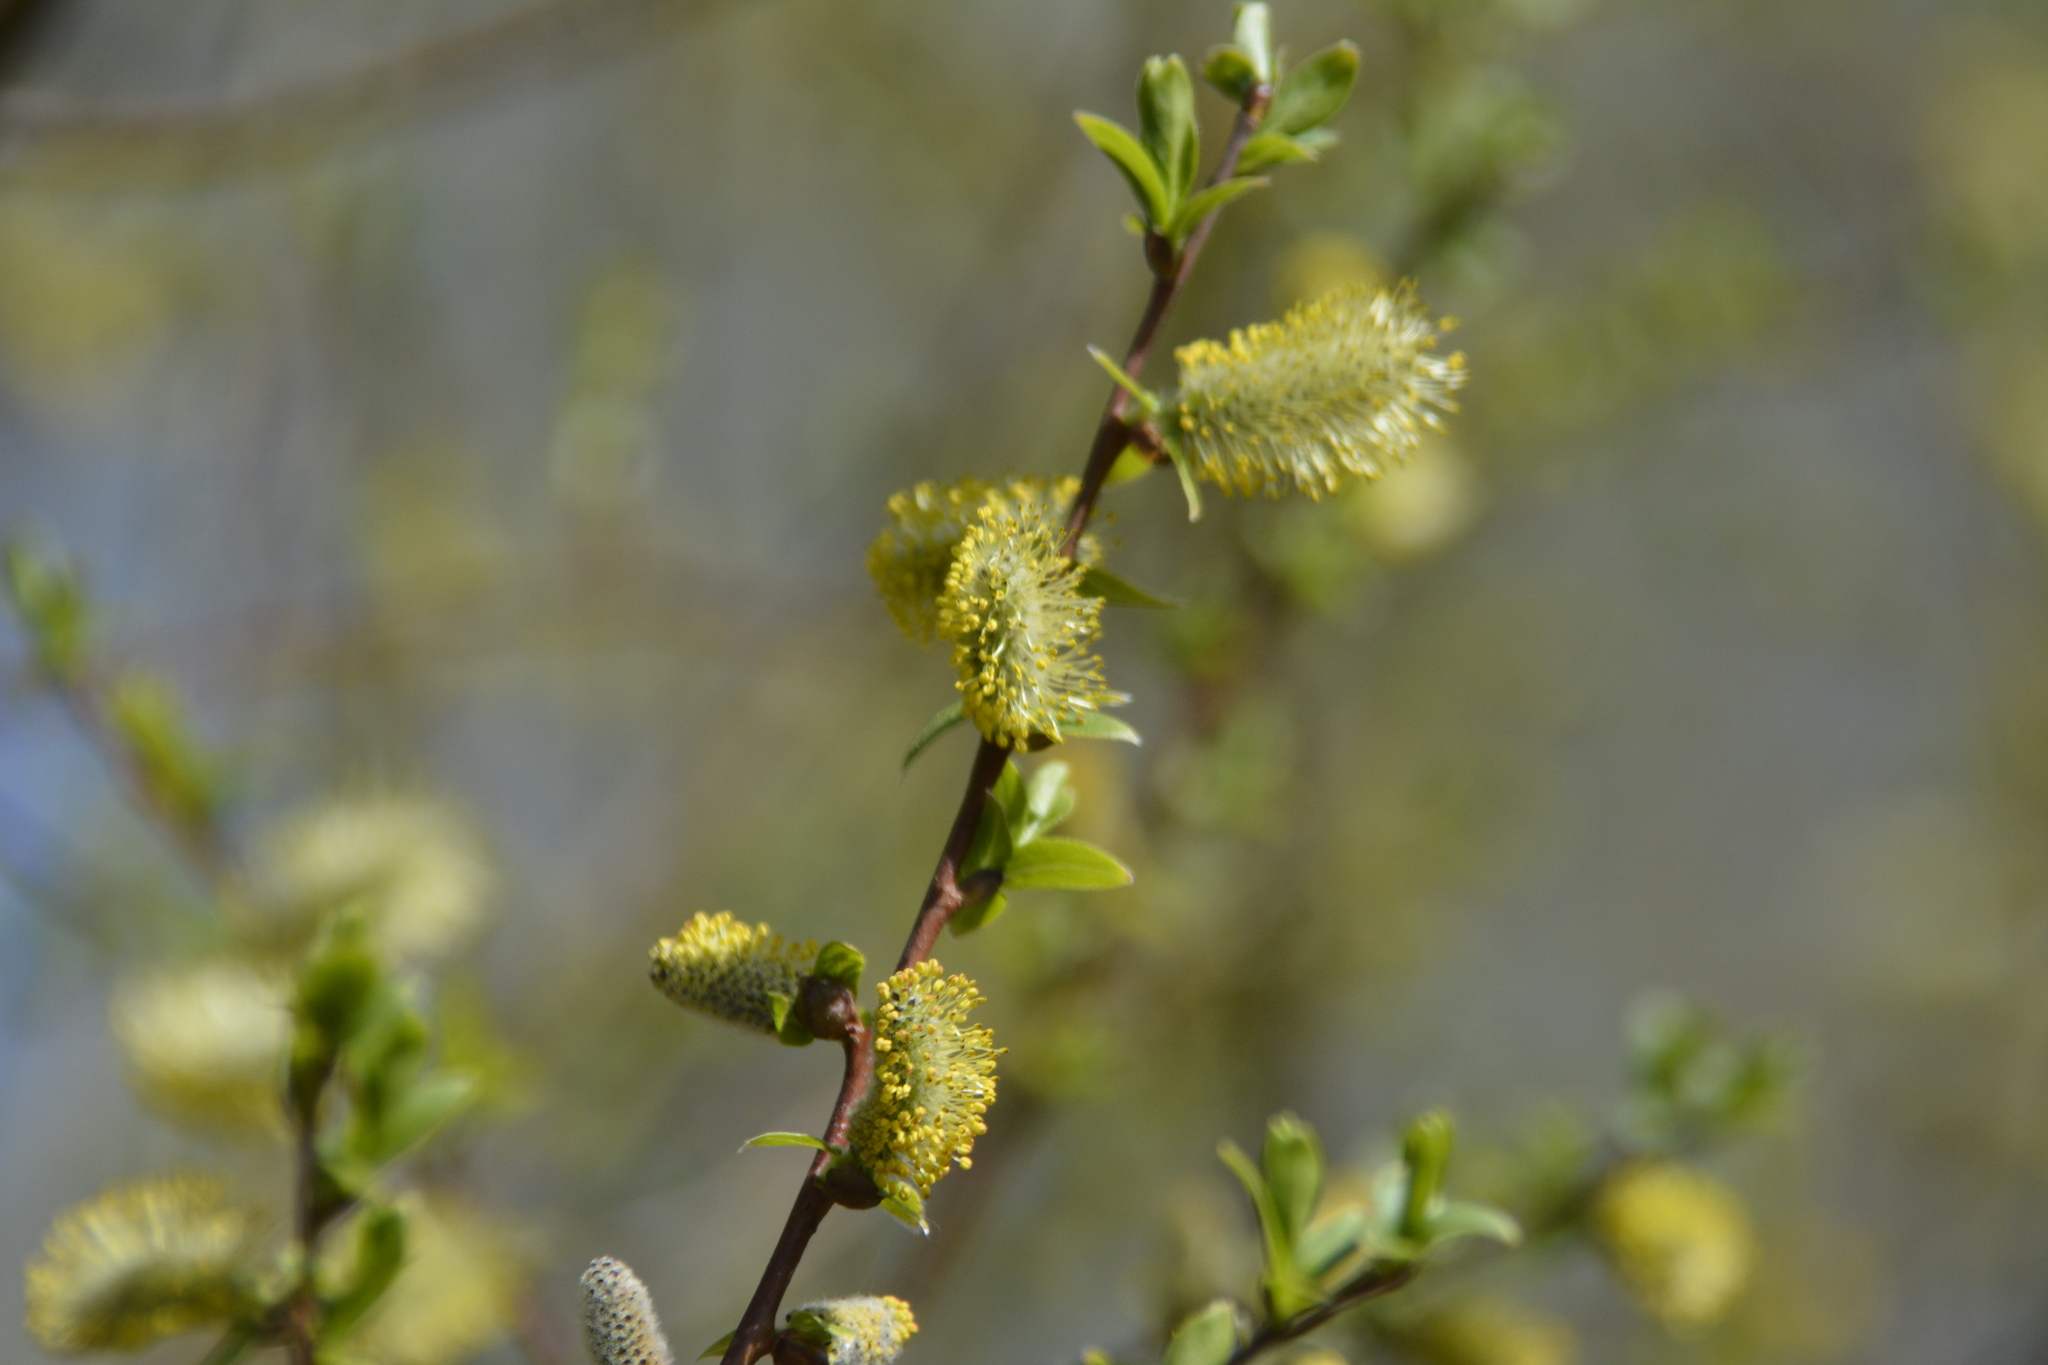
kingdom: Plantae
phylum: Tracheophyta
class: Magnoliopsida
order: Malpighiales
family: Salicaceae
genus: Salix
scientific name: Salix myrsinifolia
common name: Dark-leaved willow
